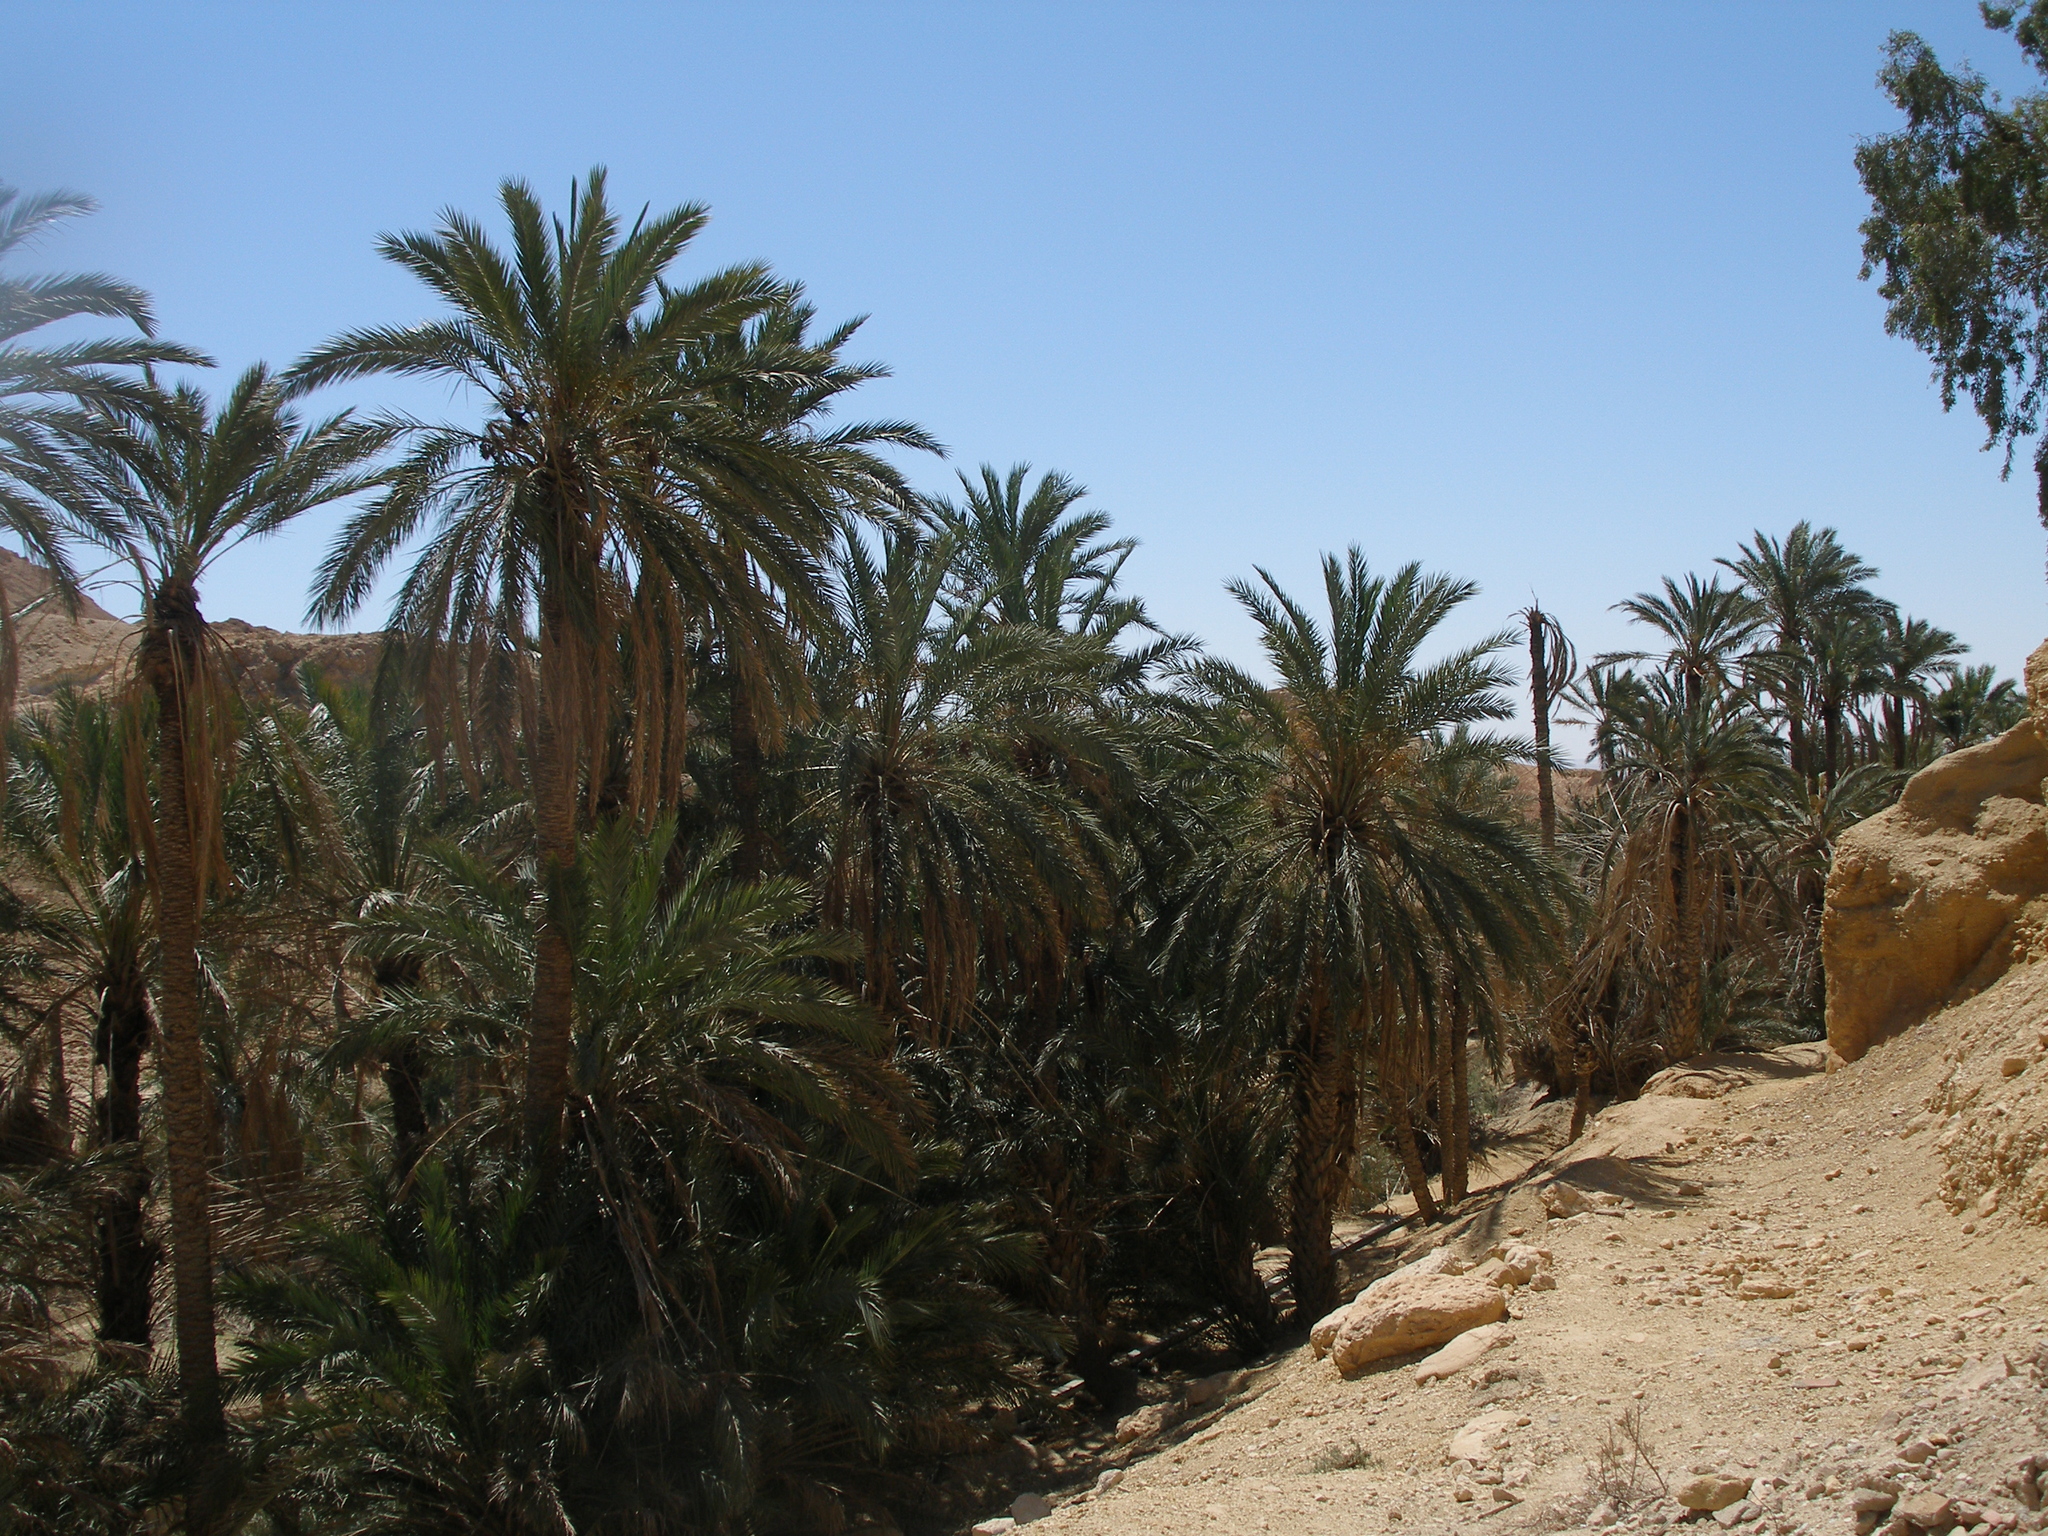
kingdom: Plantae
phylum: Tracheophyta
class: Liliopsida
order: Arecales
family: Arecaceae
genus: Phoenix
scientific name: Phoenix dactylifera
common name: Date palm
